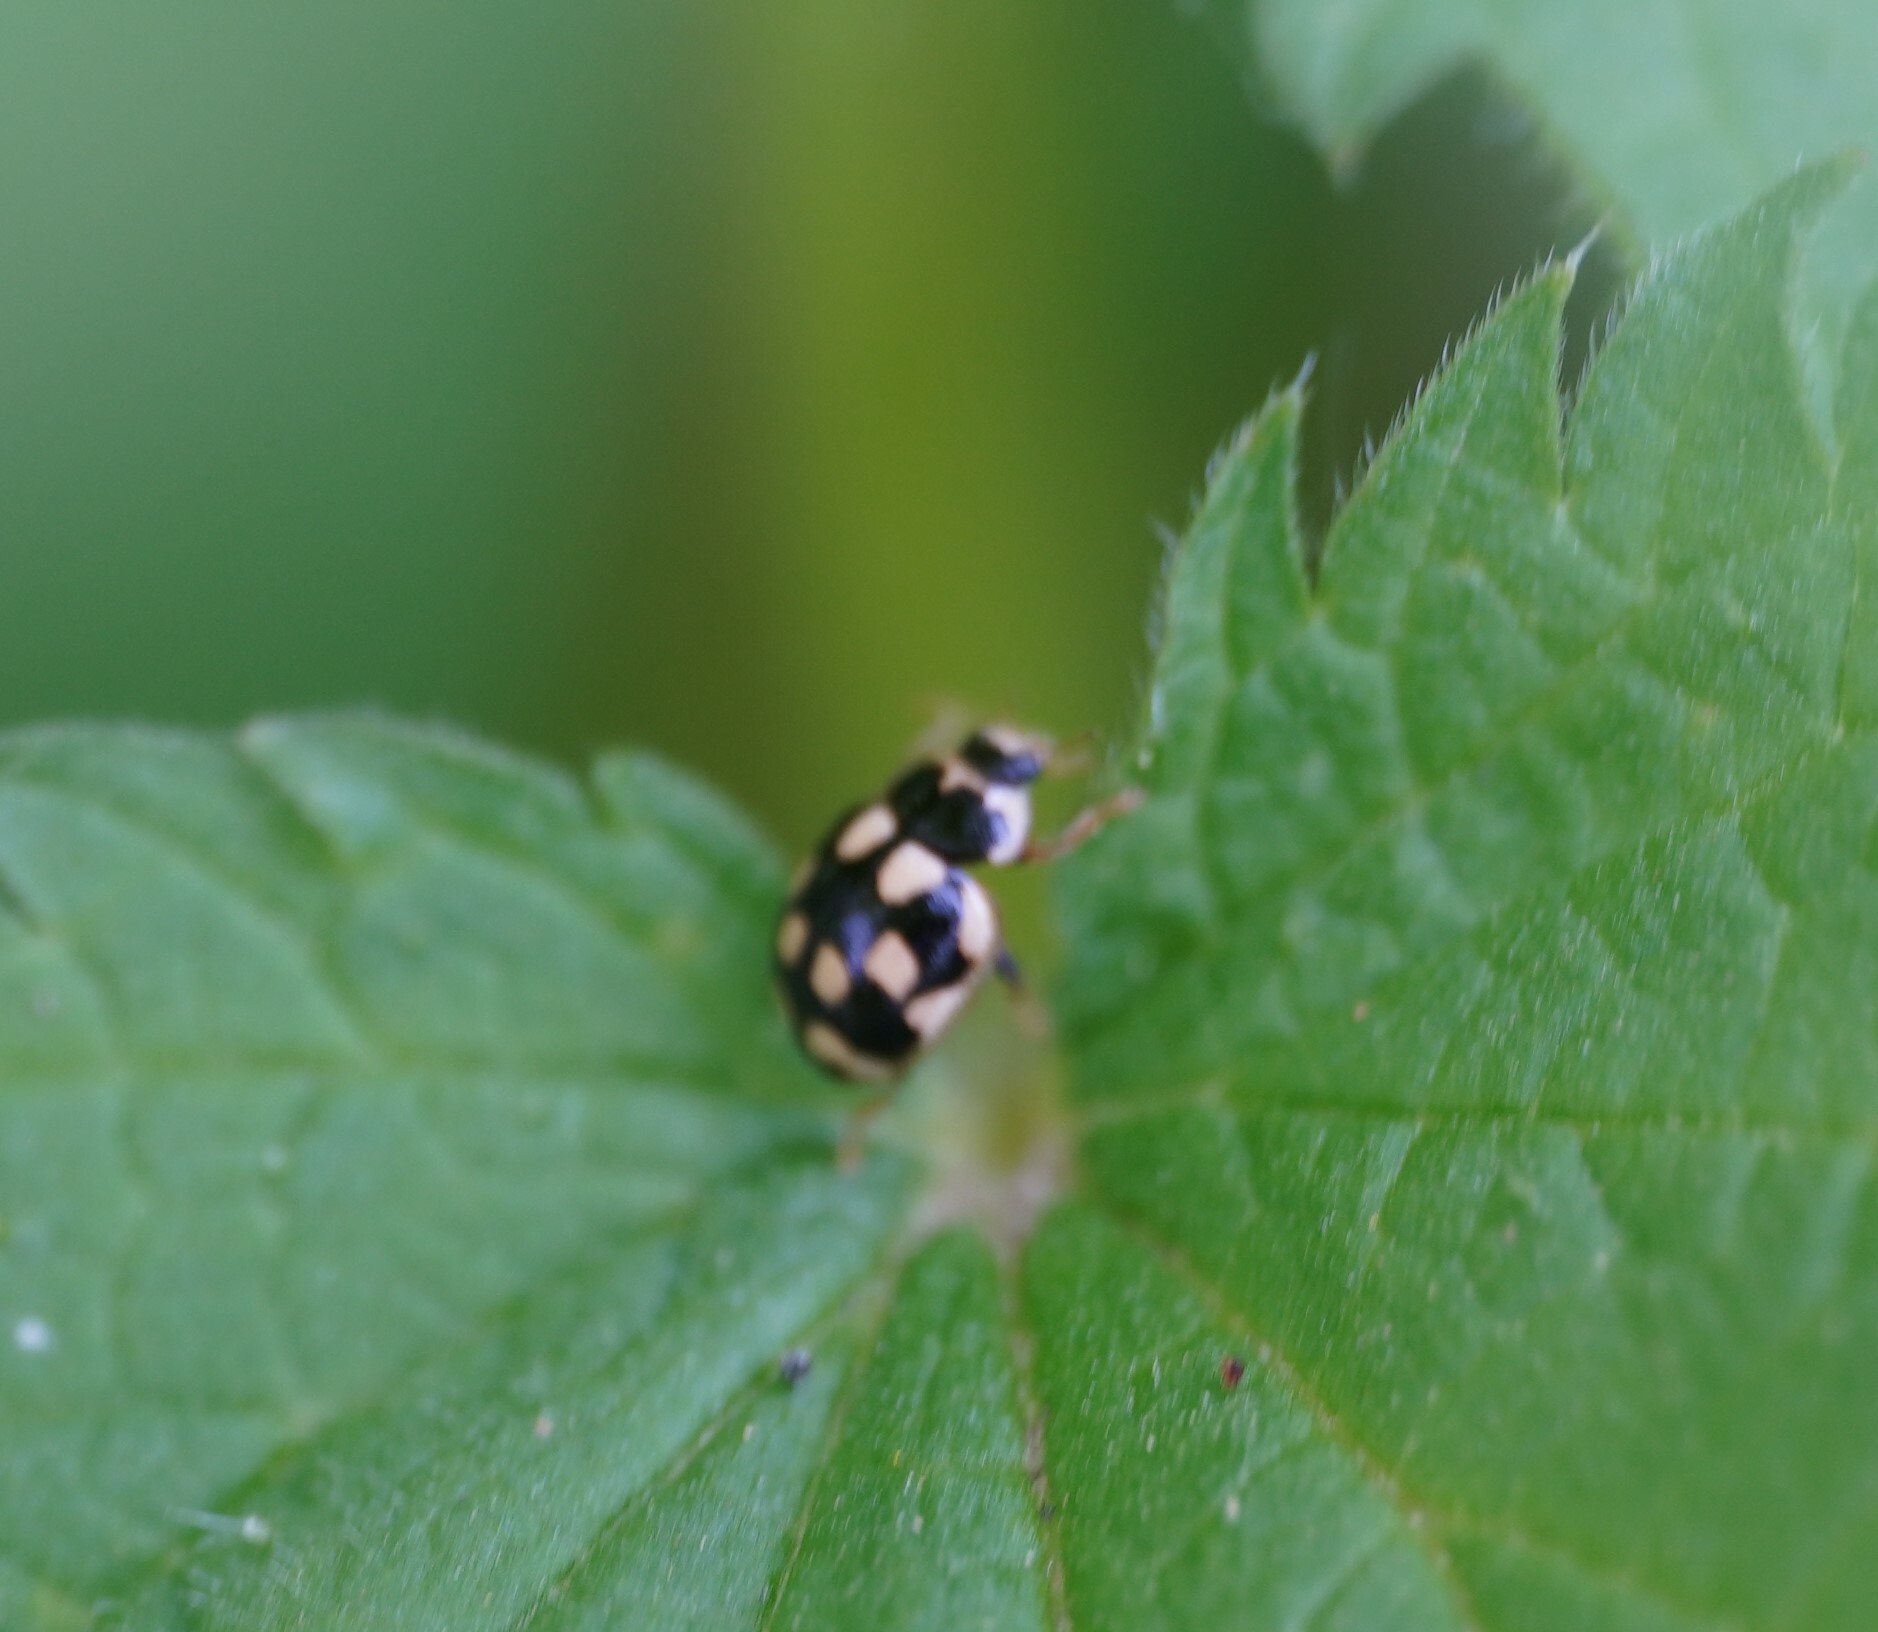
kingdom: Animalia
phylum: Arthropoda
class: Insecta
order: Coleoptera
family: Coccinellidae
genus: Propylaea
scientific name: Propylaea quatuordecimpunctata
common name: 14-spotted ladybird beetle
